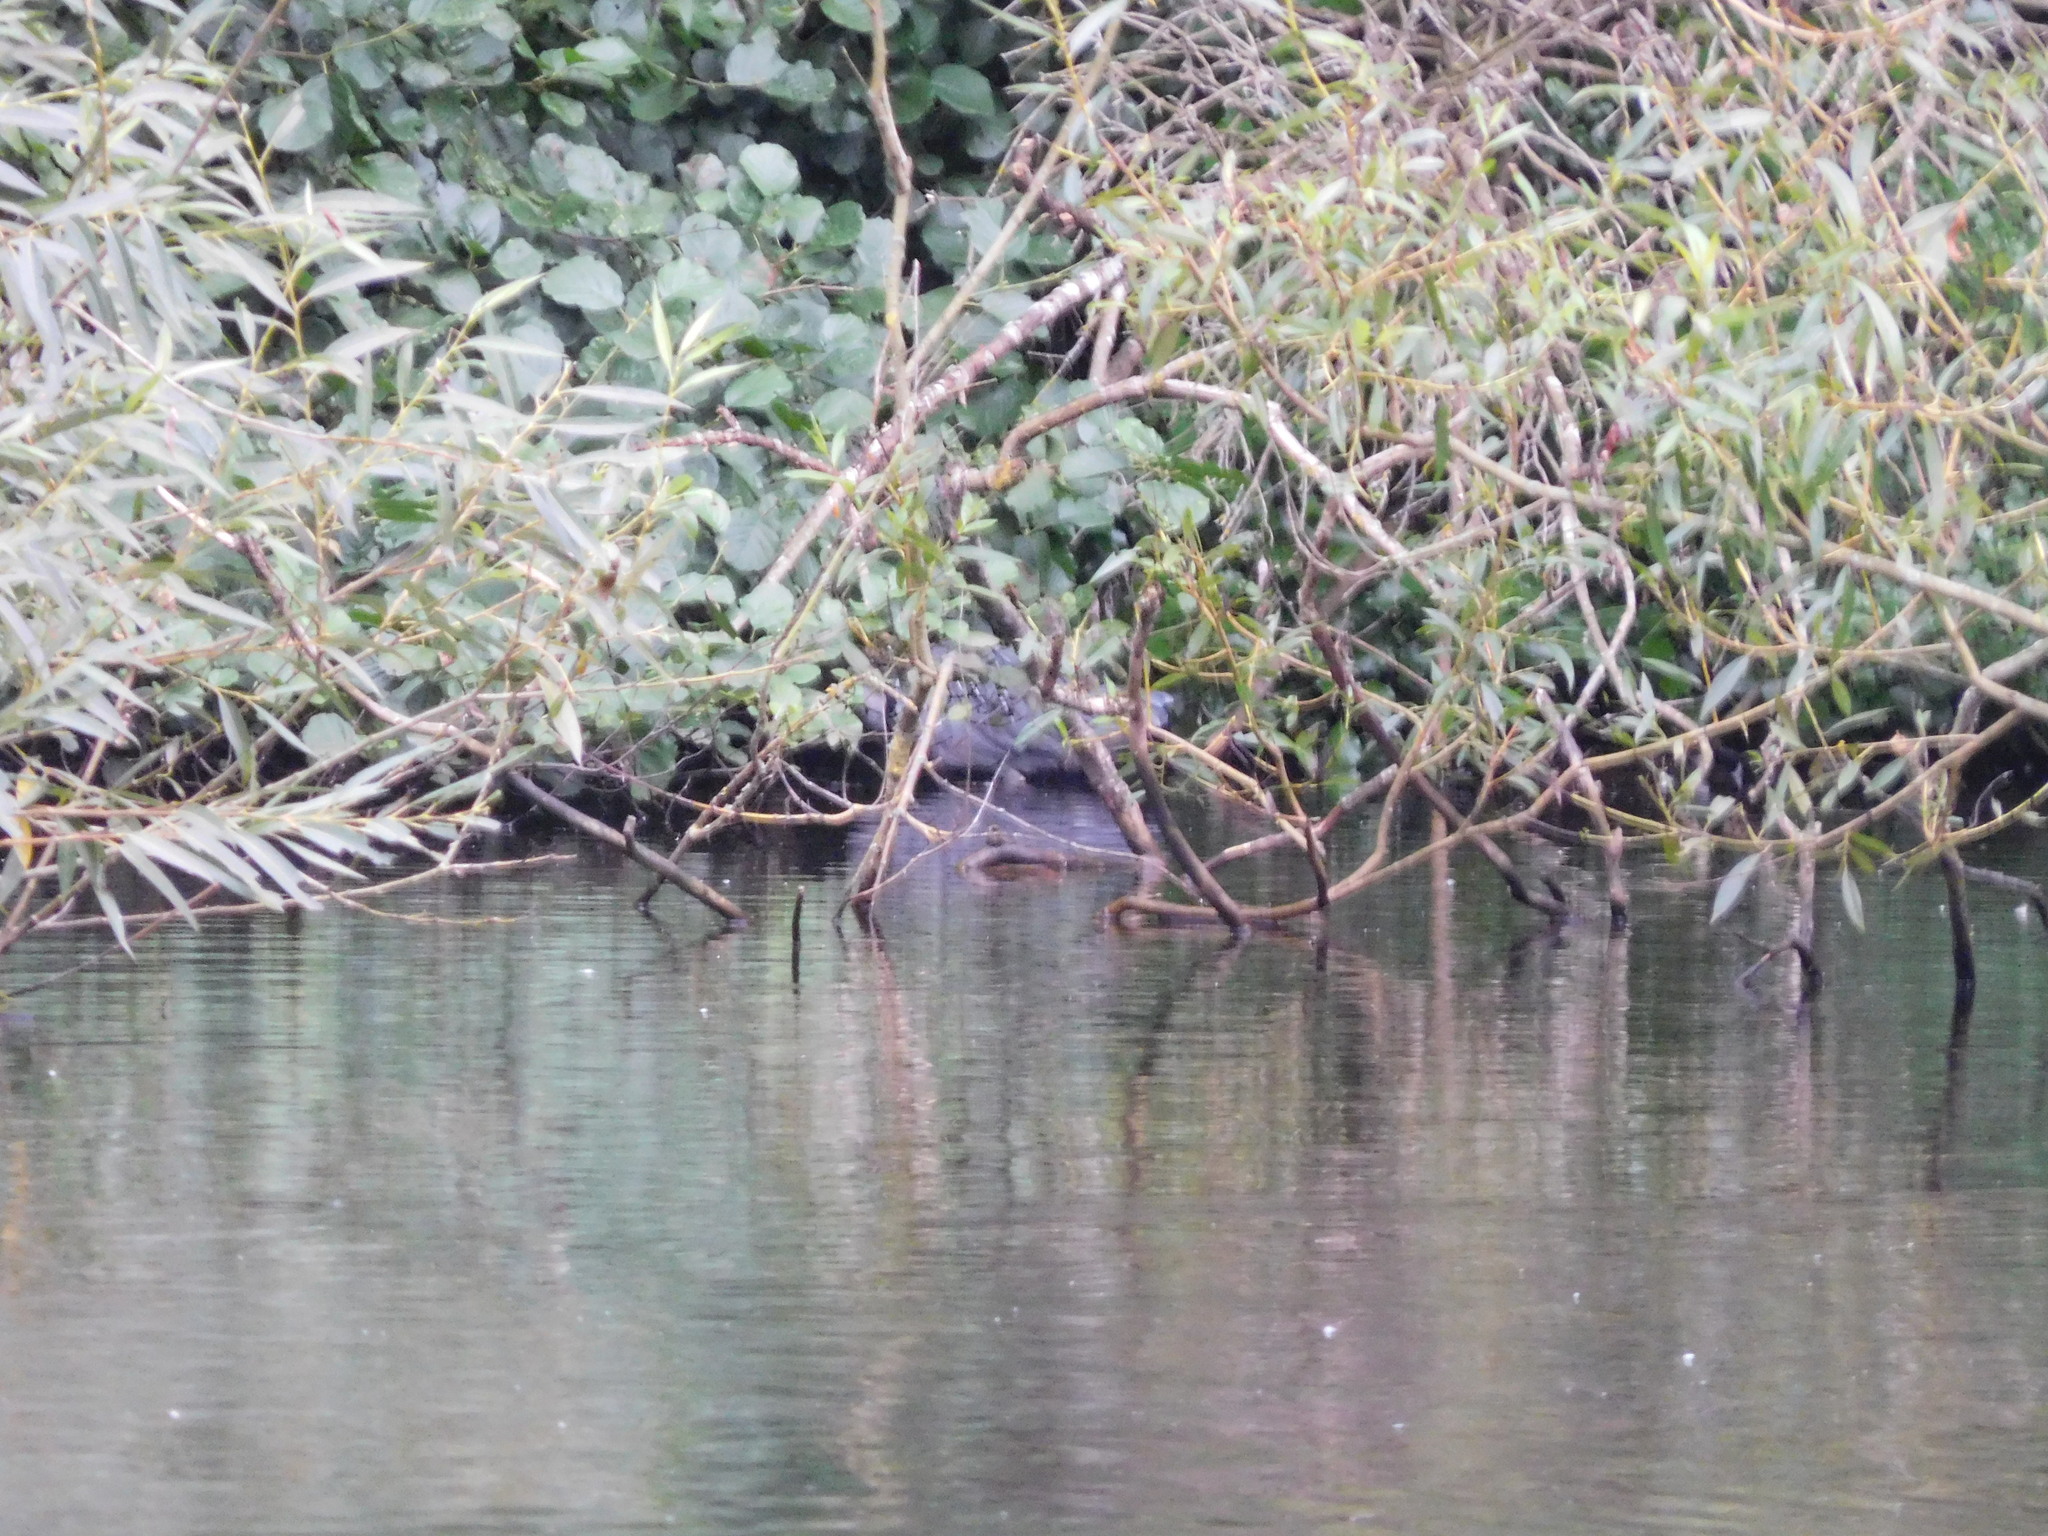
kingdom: Animalia
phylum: Chordata
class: Aves
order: Pelecaniformes
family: Ardeidae
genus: Ardea
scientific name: Ardea cinerea
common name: Grey heron
